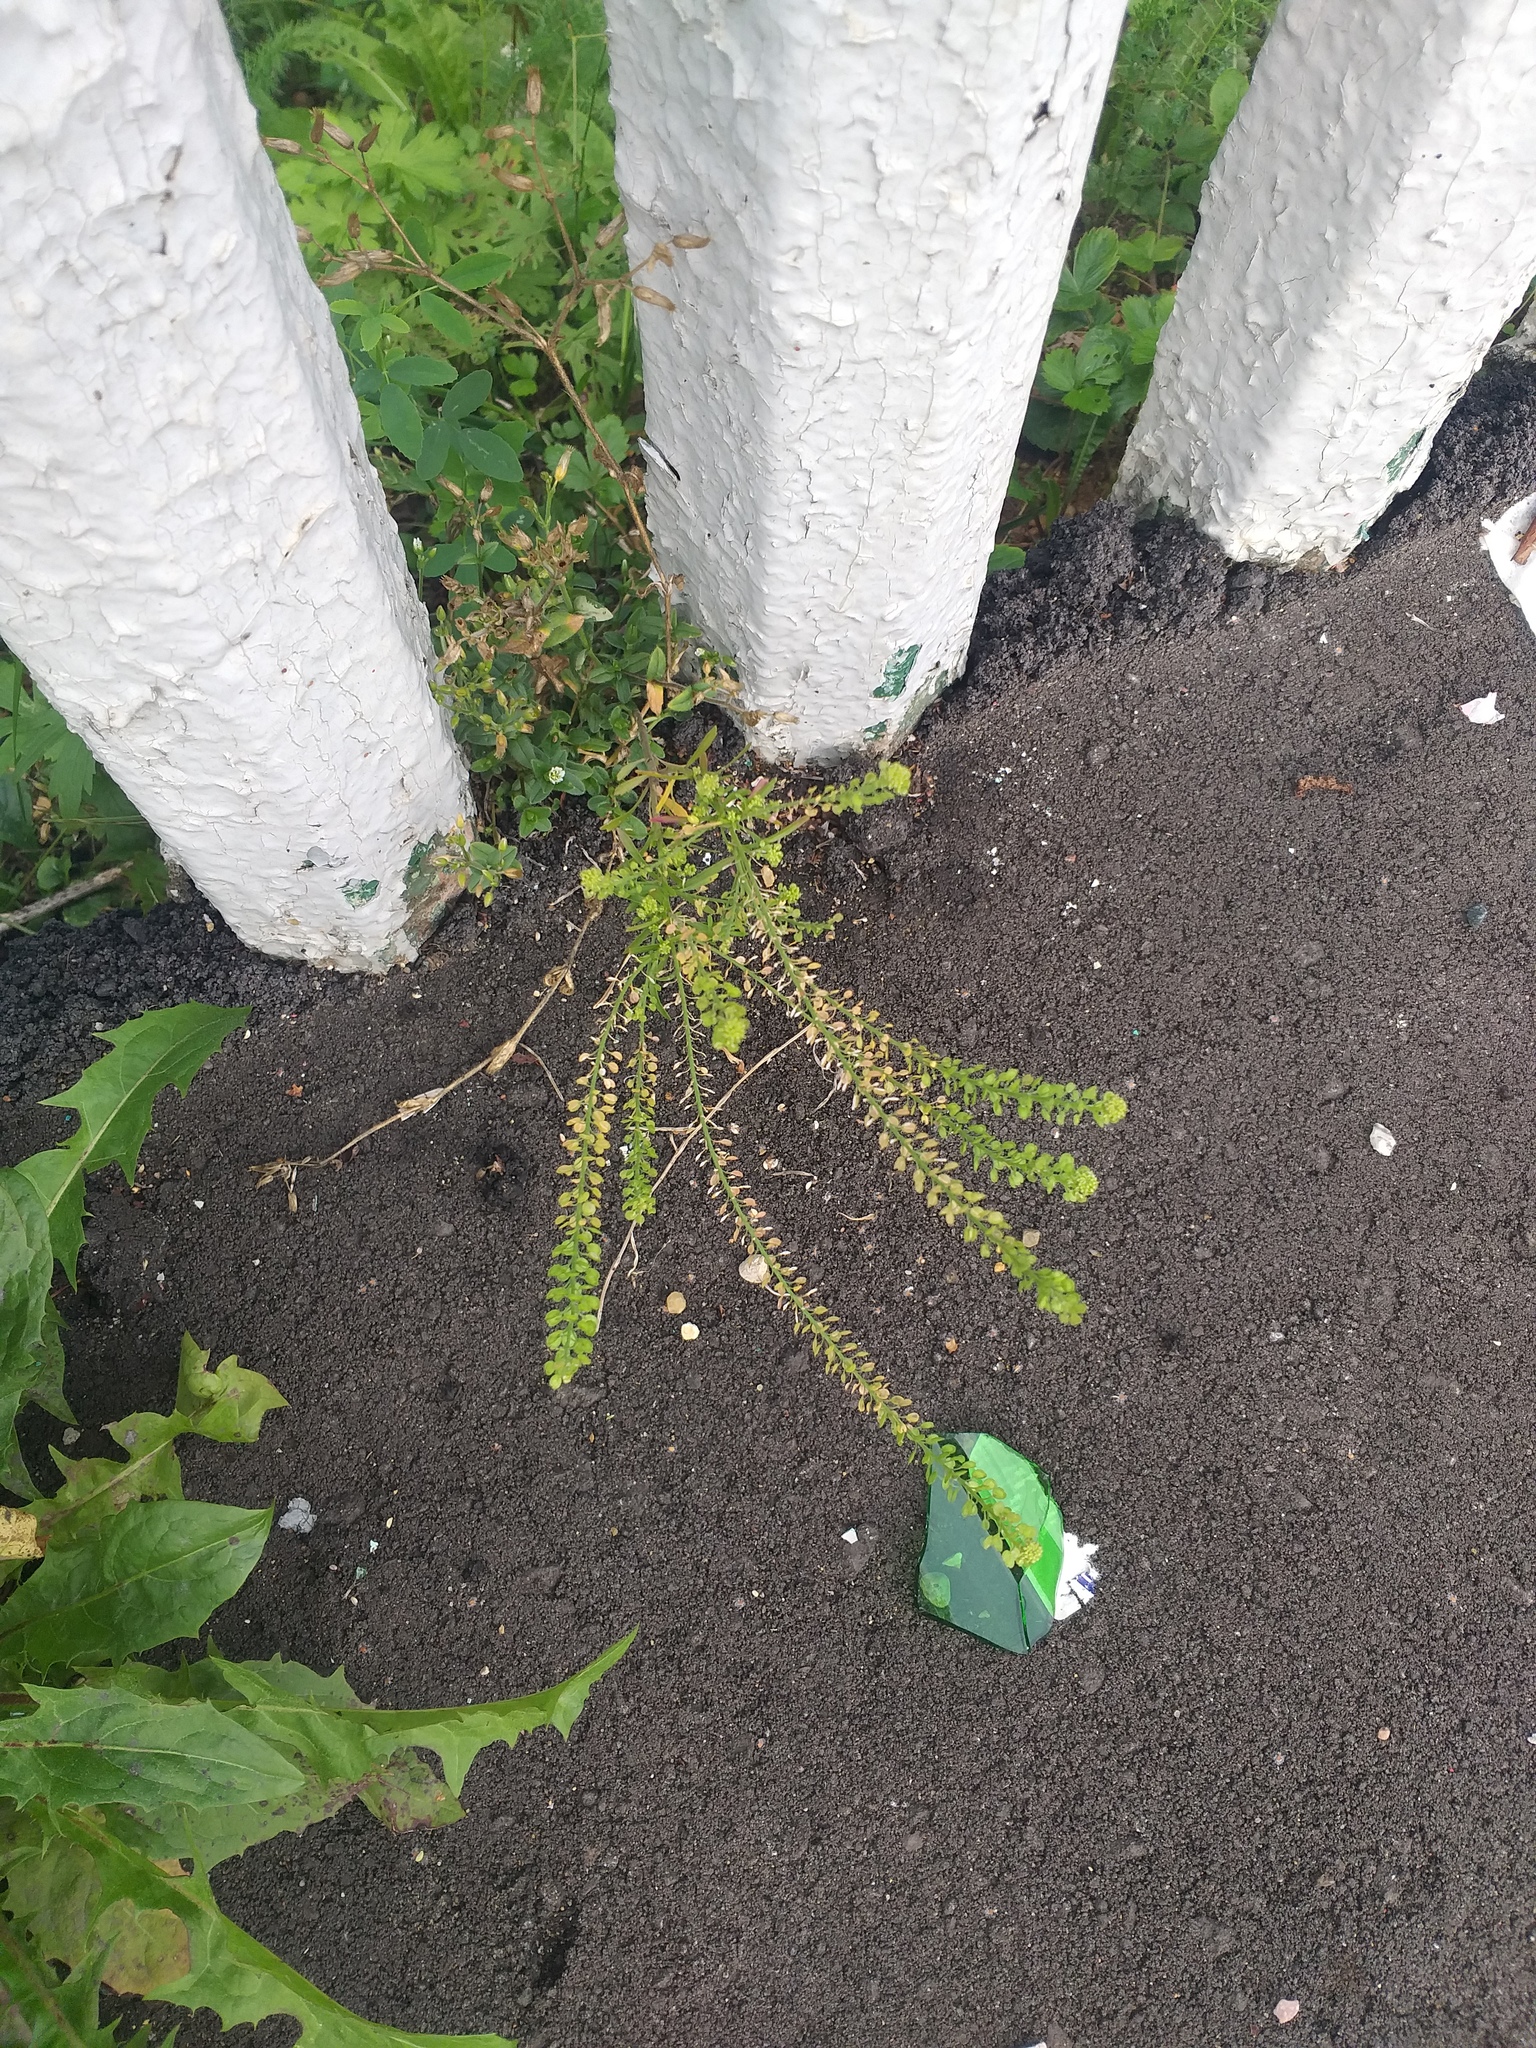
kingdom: Plantae
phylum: Tracheophyta
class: Magnoliopsida
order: Brassicales
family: Brassicaceae
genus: Lepidium
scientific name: Lepidium densiflorum
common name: Miner's pepperwort
